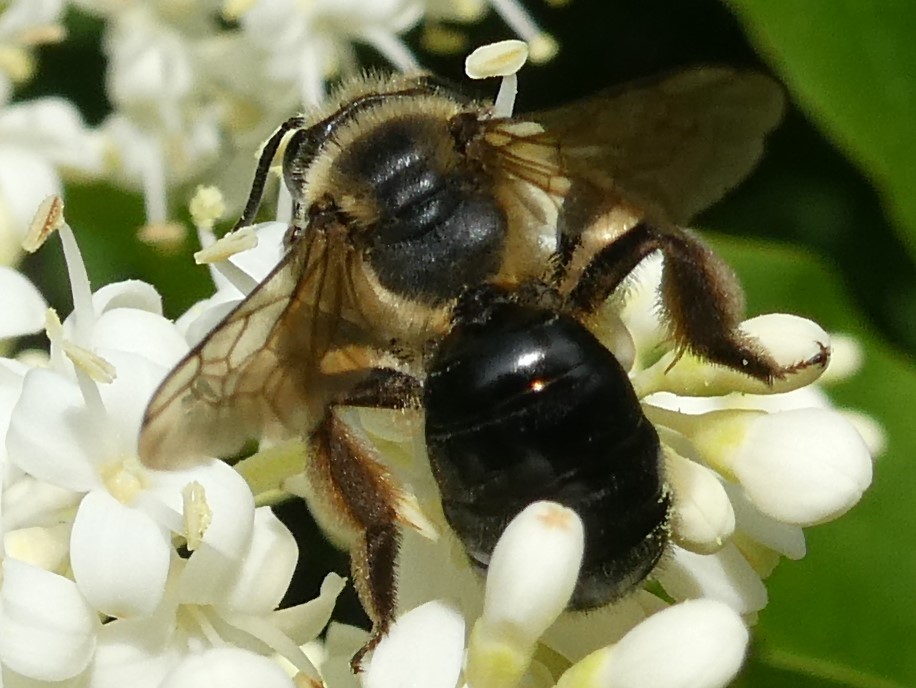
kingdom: Animalia
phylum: Arthropoda
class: Insecta
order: Hymenoptera
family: Andrenidae
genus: Andrena
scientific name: Andrena nivalis
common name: Snowy mining bee
